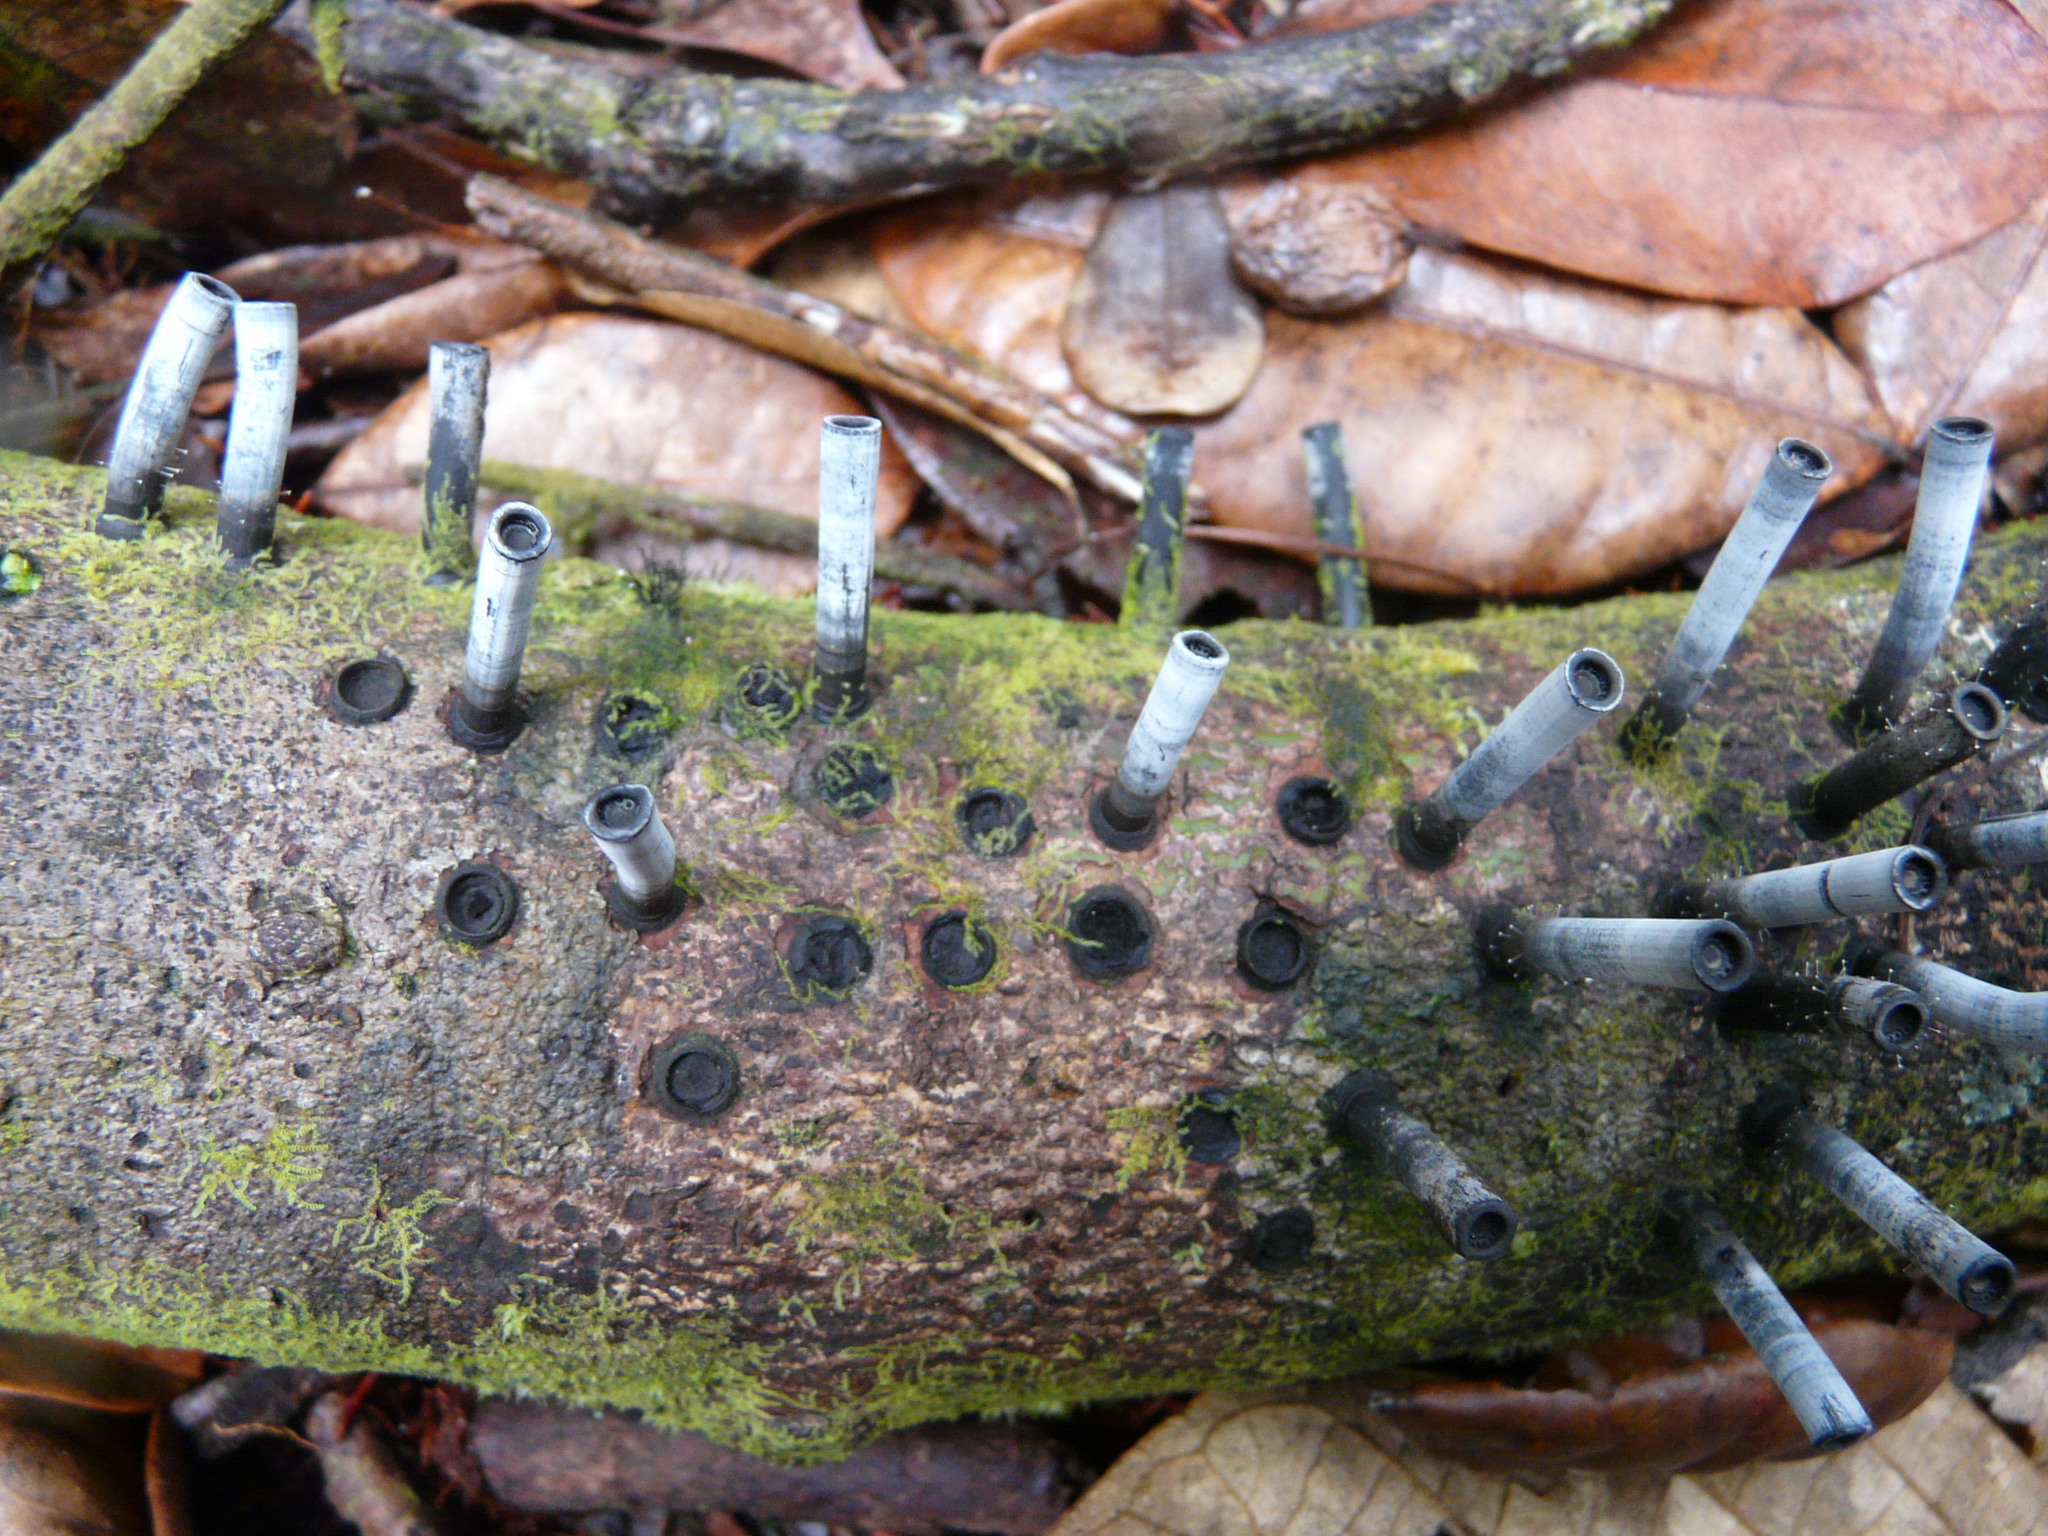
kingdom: Fungi
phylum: Ascomycota
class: Sordariomycetes
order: Xylariales
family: Graphostromataceae
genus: Camillea
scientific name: Camillea leprieurii
